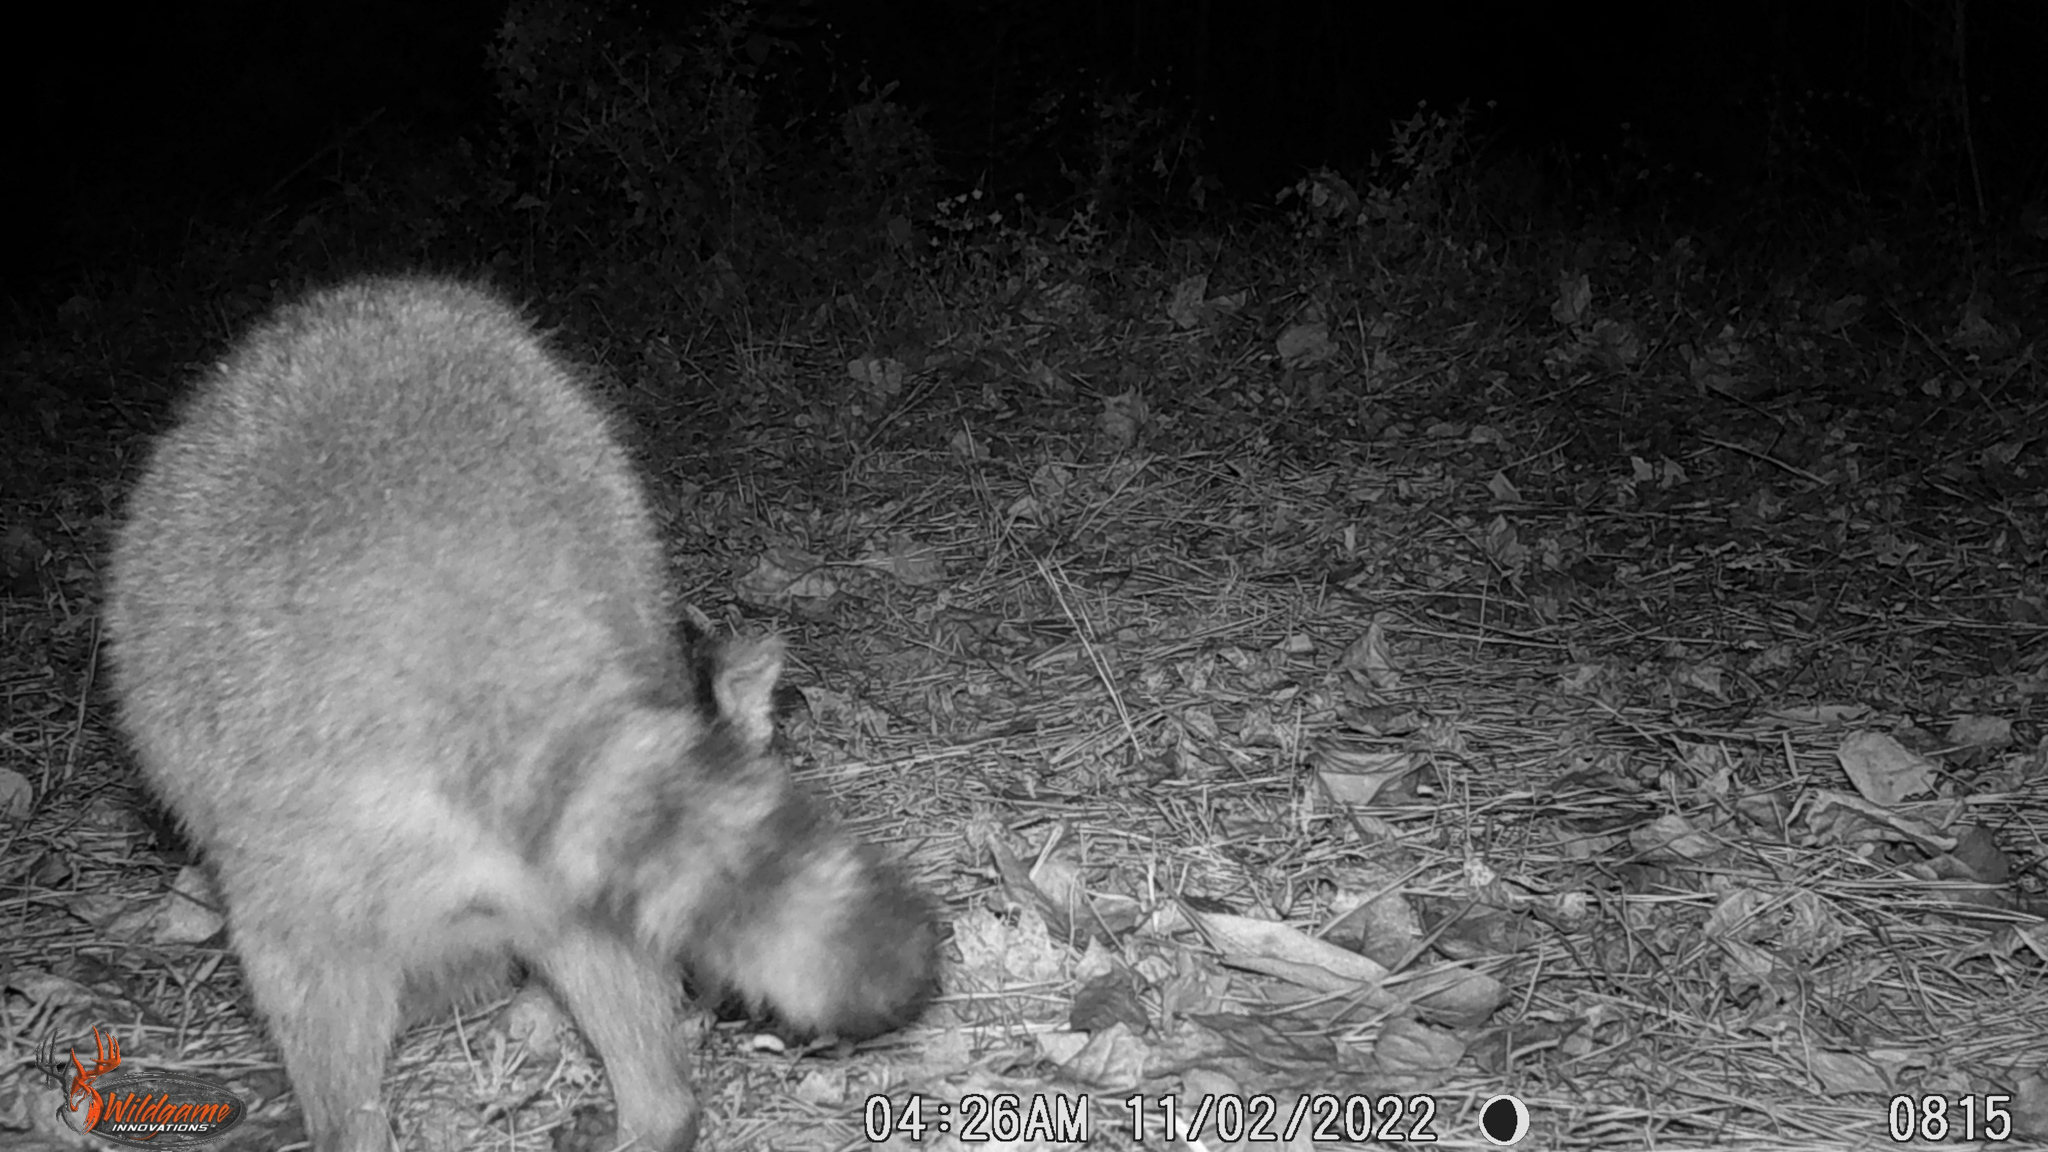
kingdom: Animalia
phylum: Chordata
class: Mammalia
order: Carnivora
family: Procyonidae
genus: Procyon
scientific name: Procyon lotor
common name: Raccoon
